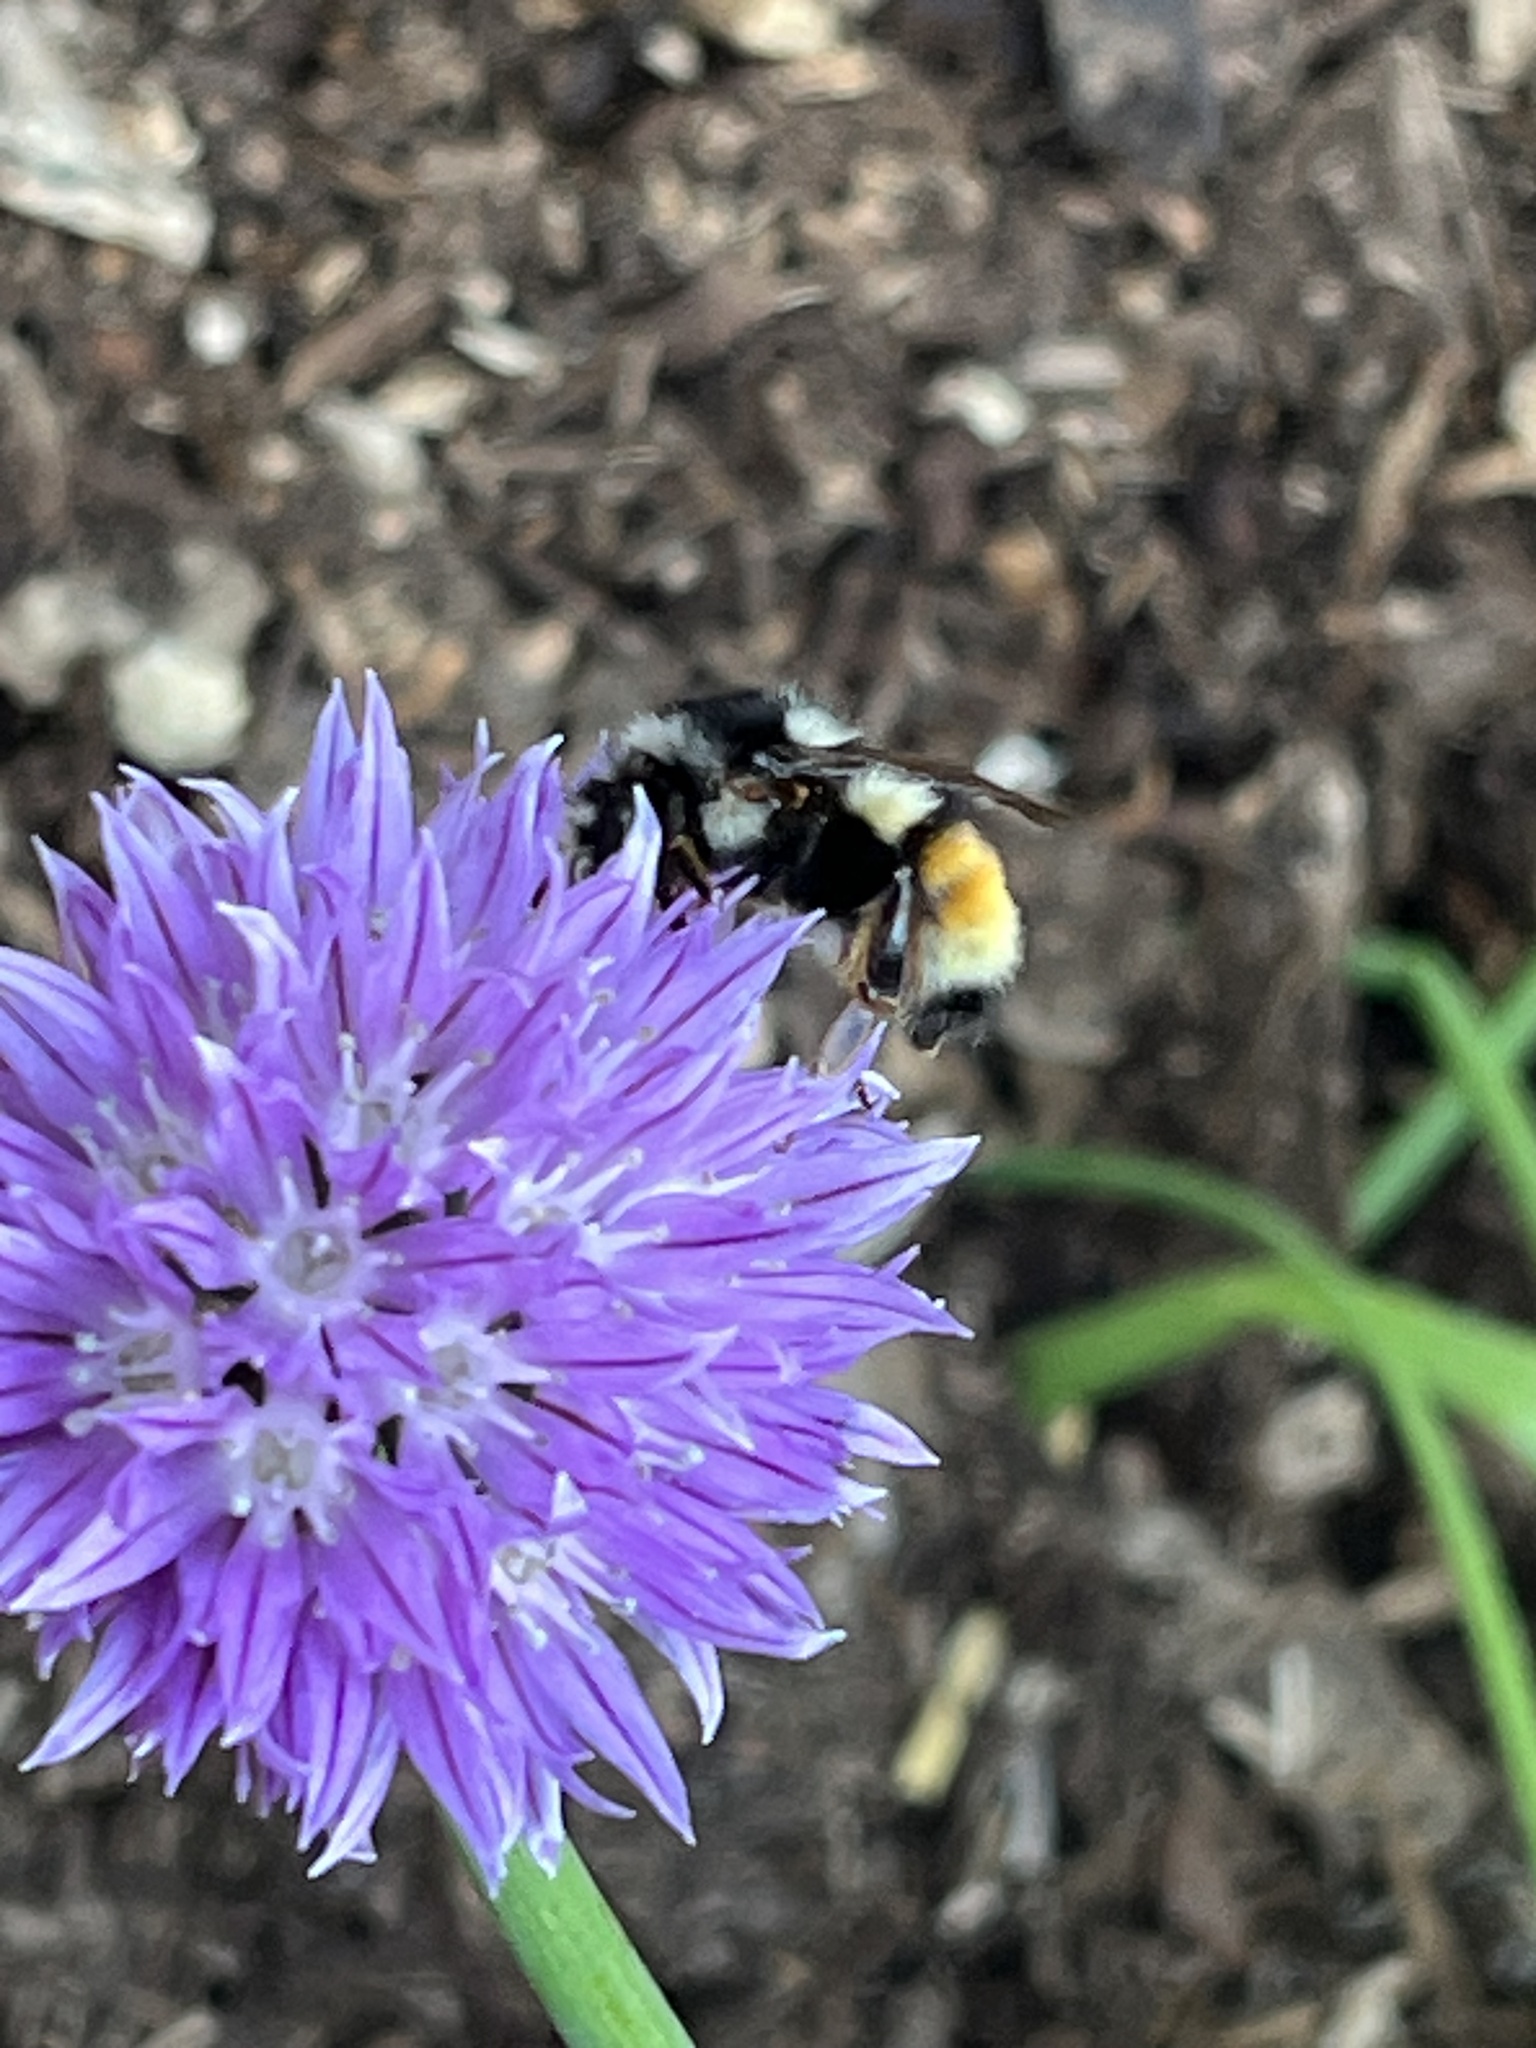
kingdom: Animalia
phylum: Arthropoda
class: Insecta
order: Hymenoptera
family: Apidae
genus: Bombus
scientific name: Bombus vancouverensis
